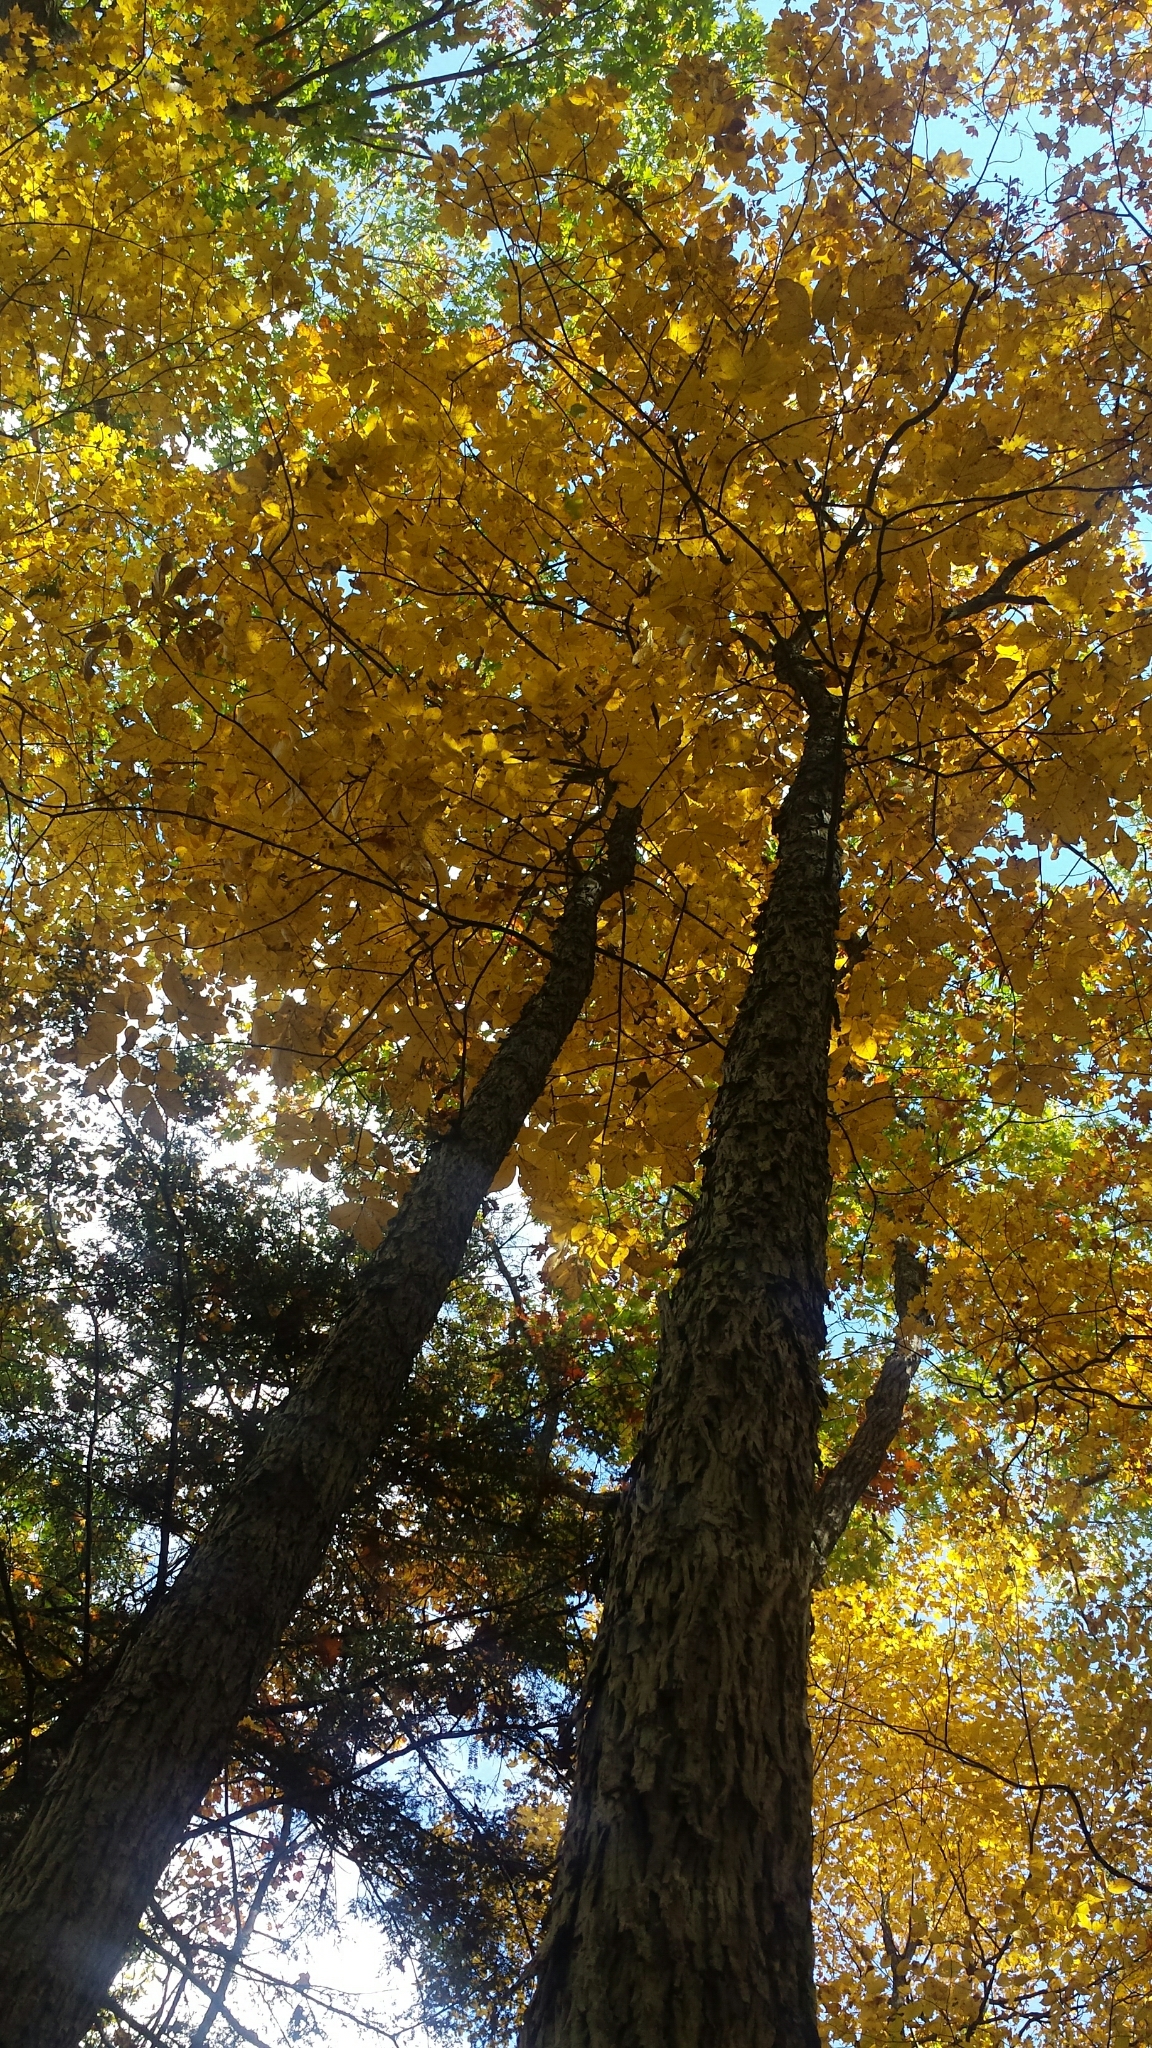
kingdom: Plantae
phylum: Tracheophyta
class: Magnoliopsida
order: Fagales
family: Juglandaceae
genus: Carya
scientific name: Carya ovata
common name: Shagbark hickory
